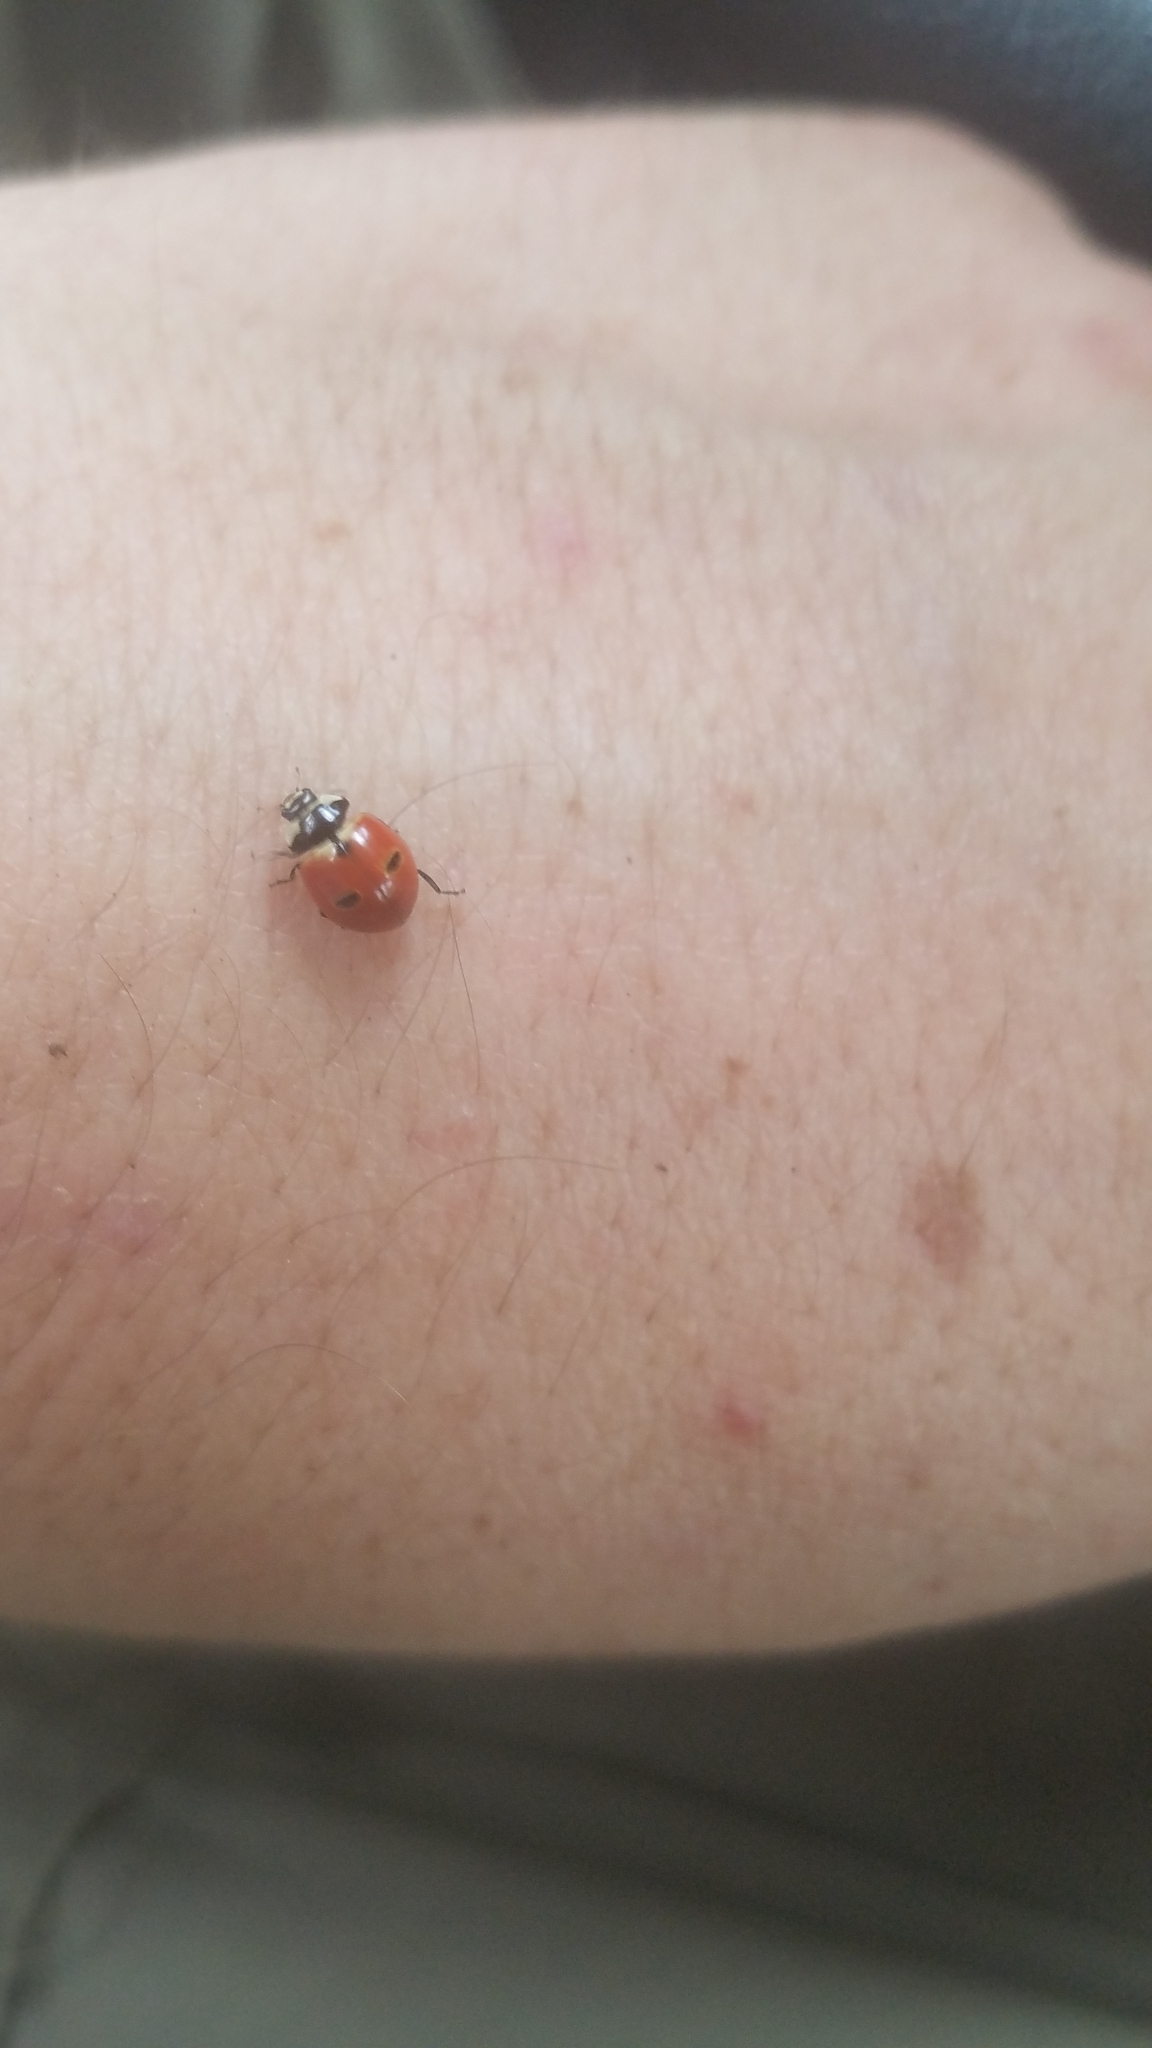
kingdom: Animalia
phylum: Arthropoda
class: Insecta
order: Coleoptera
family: Coccinellidae
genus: Coccinella
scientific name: Coccinella trifasciata
